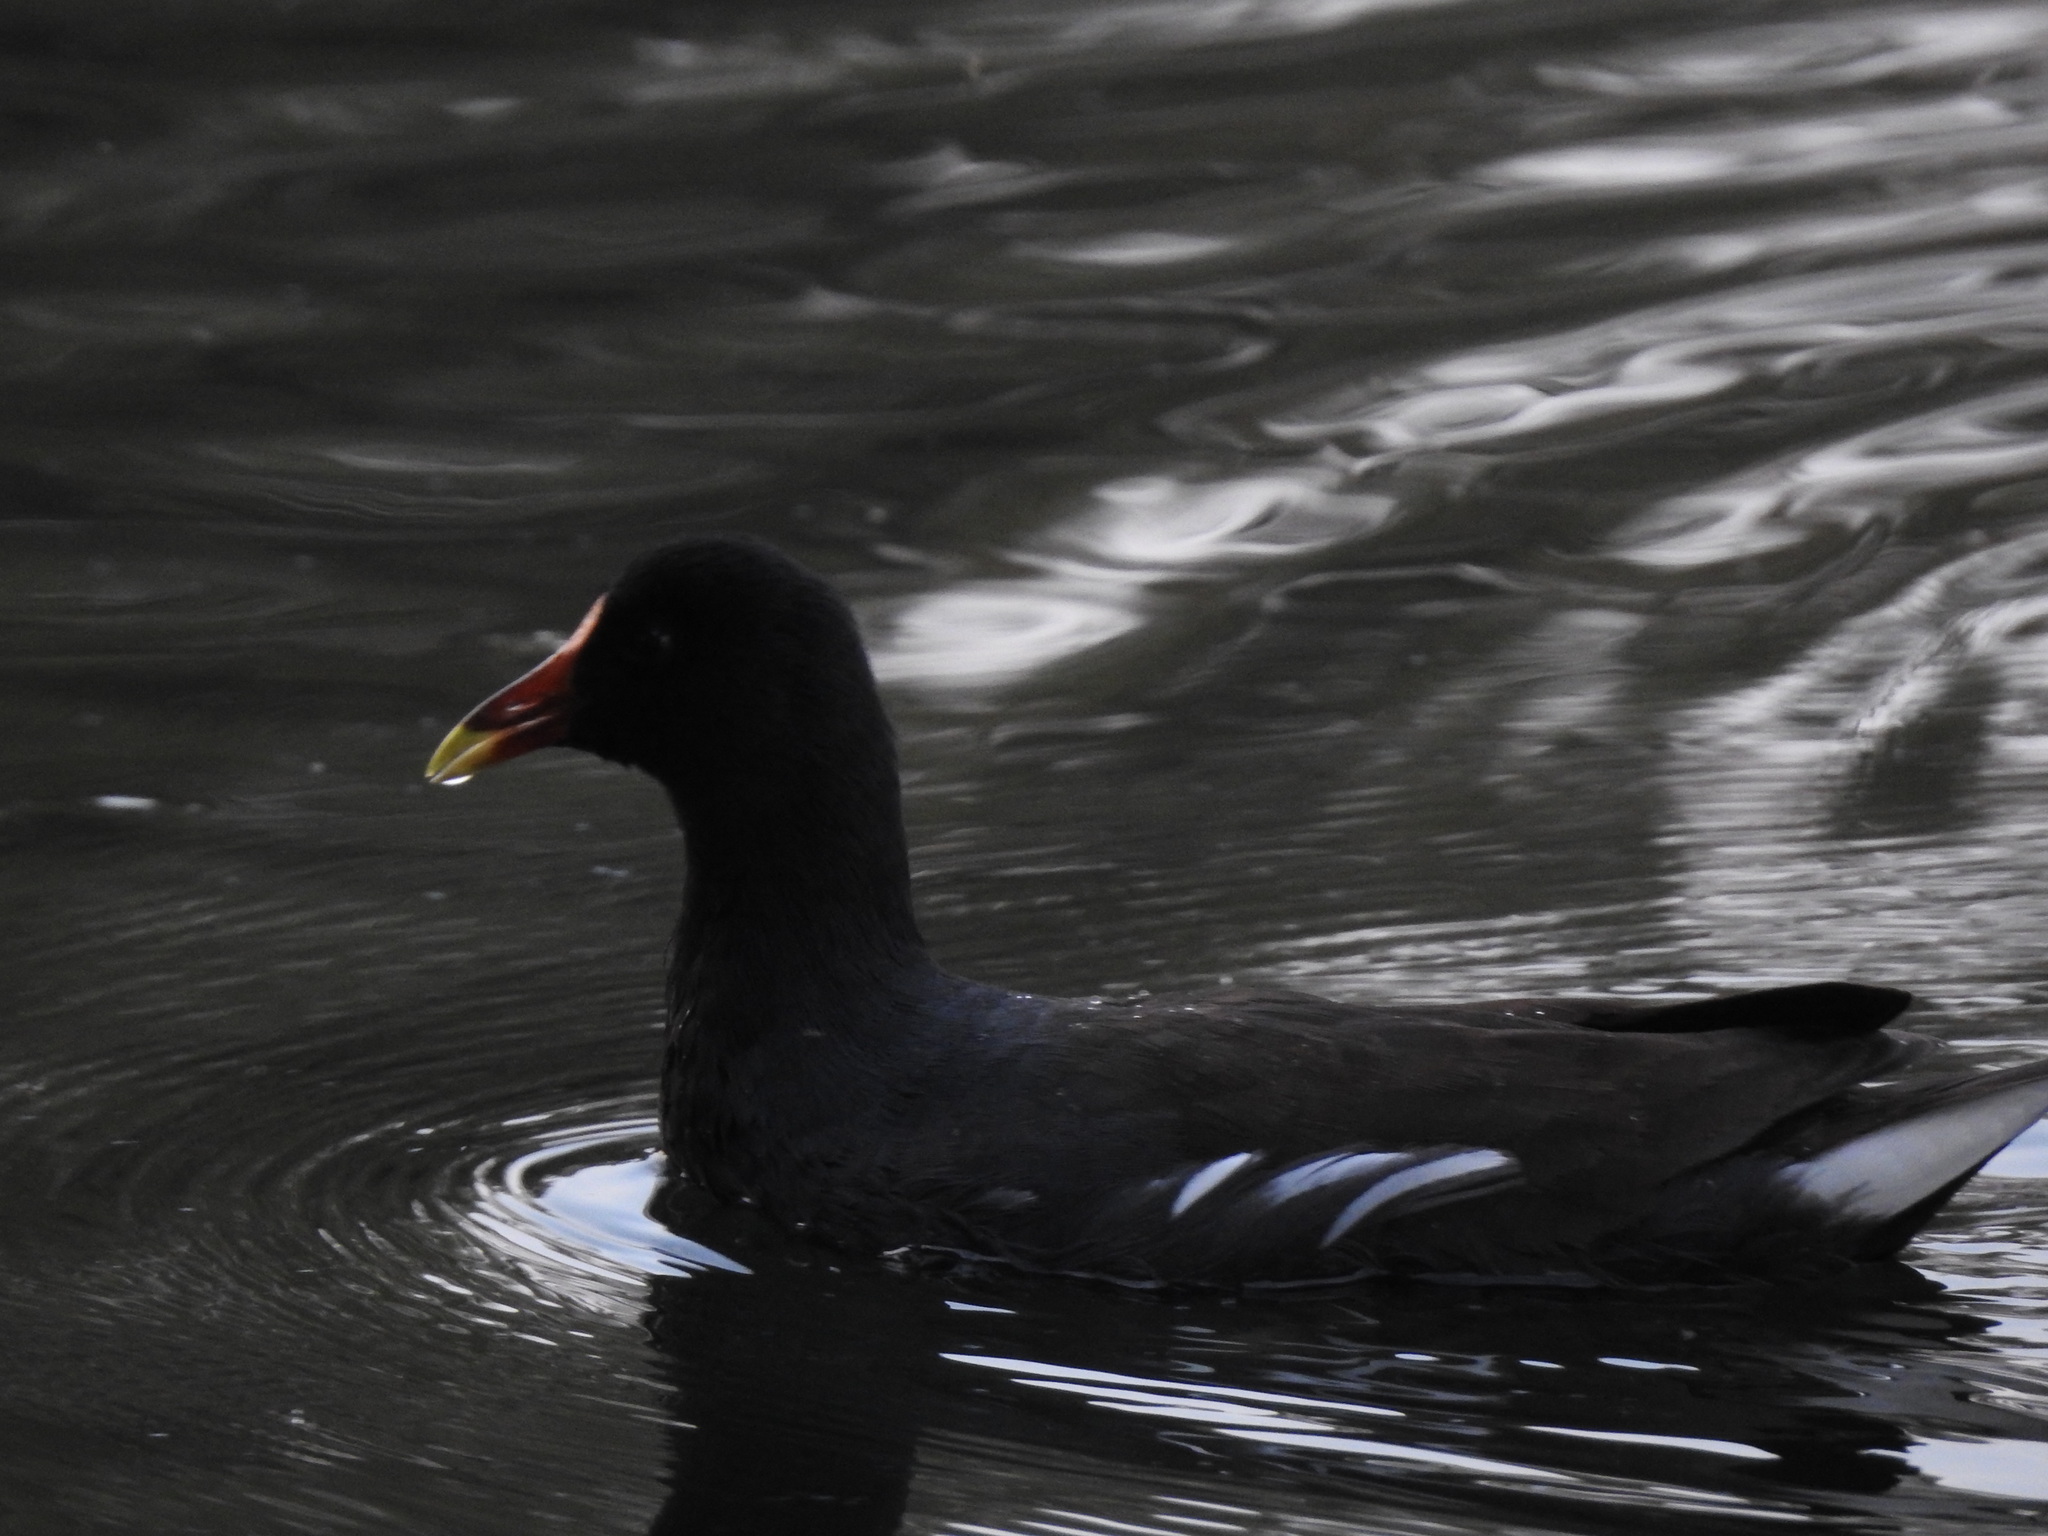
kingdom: Animalia
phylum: Chordata
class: Aves
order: Gruiformes
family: Rallidae
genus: Gallinula
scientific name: Gallinula chloropus
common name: Common moorhen
